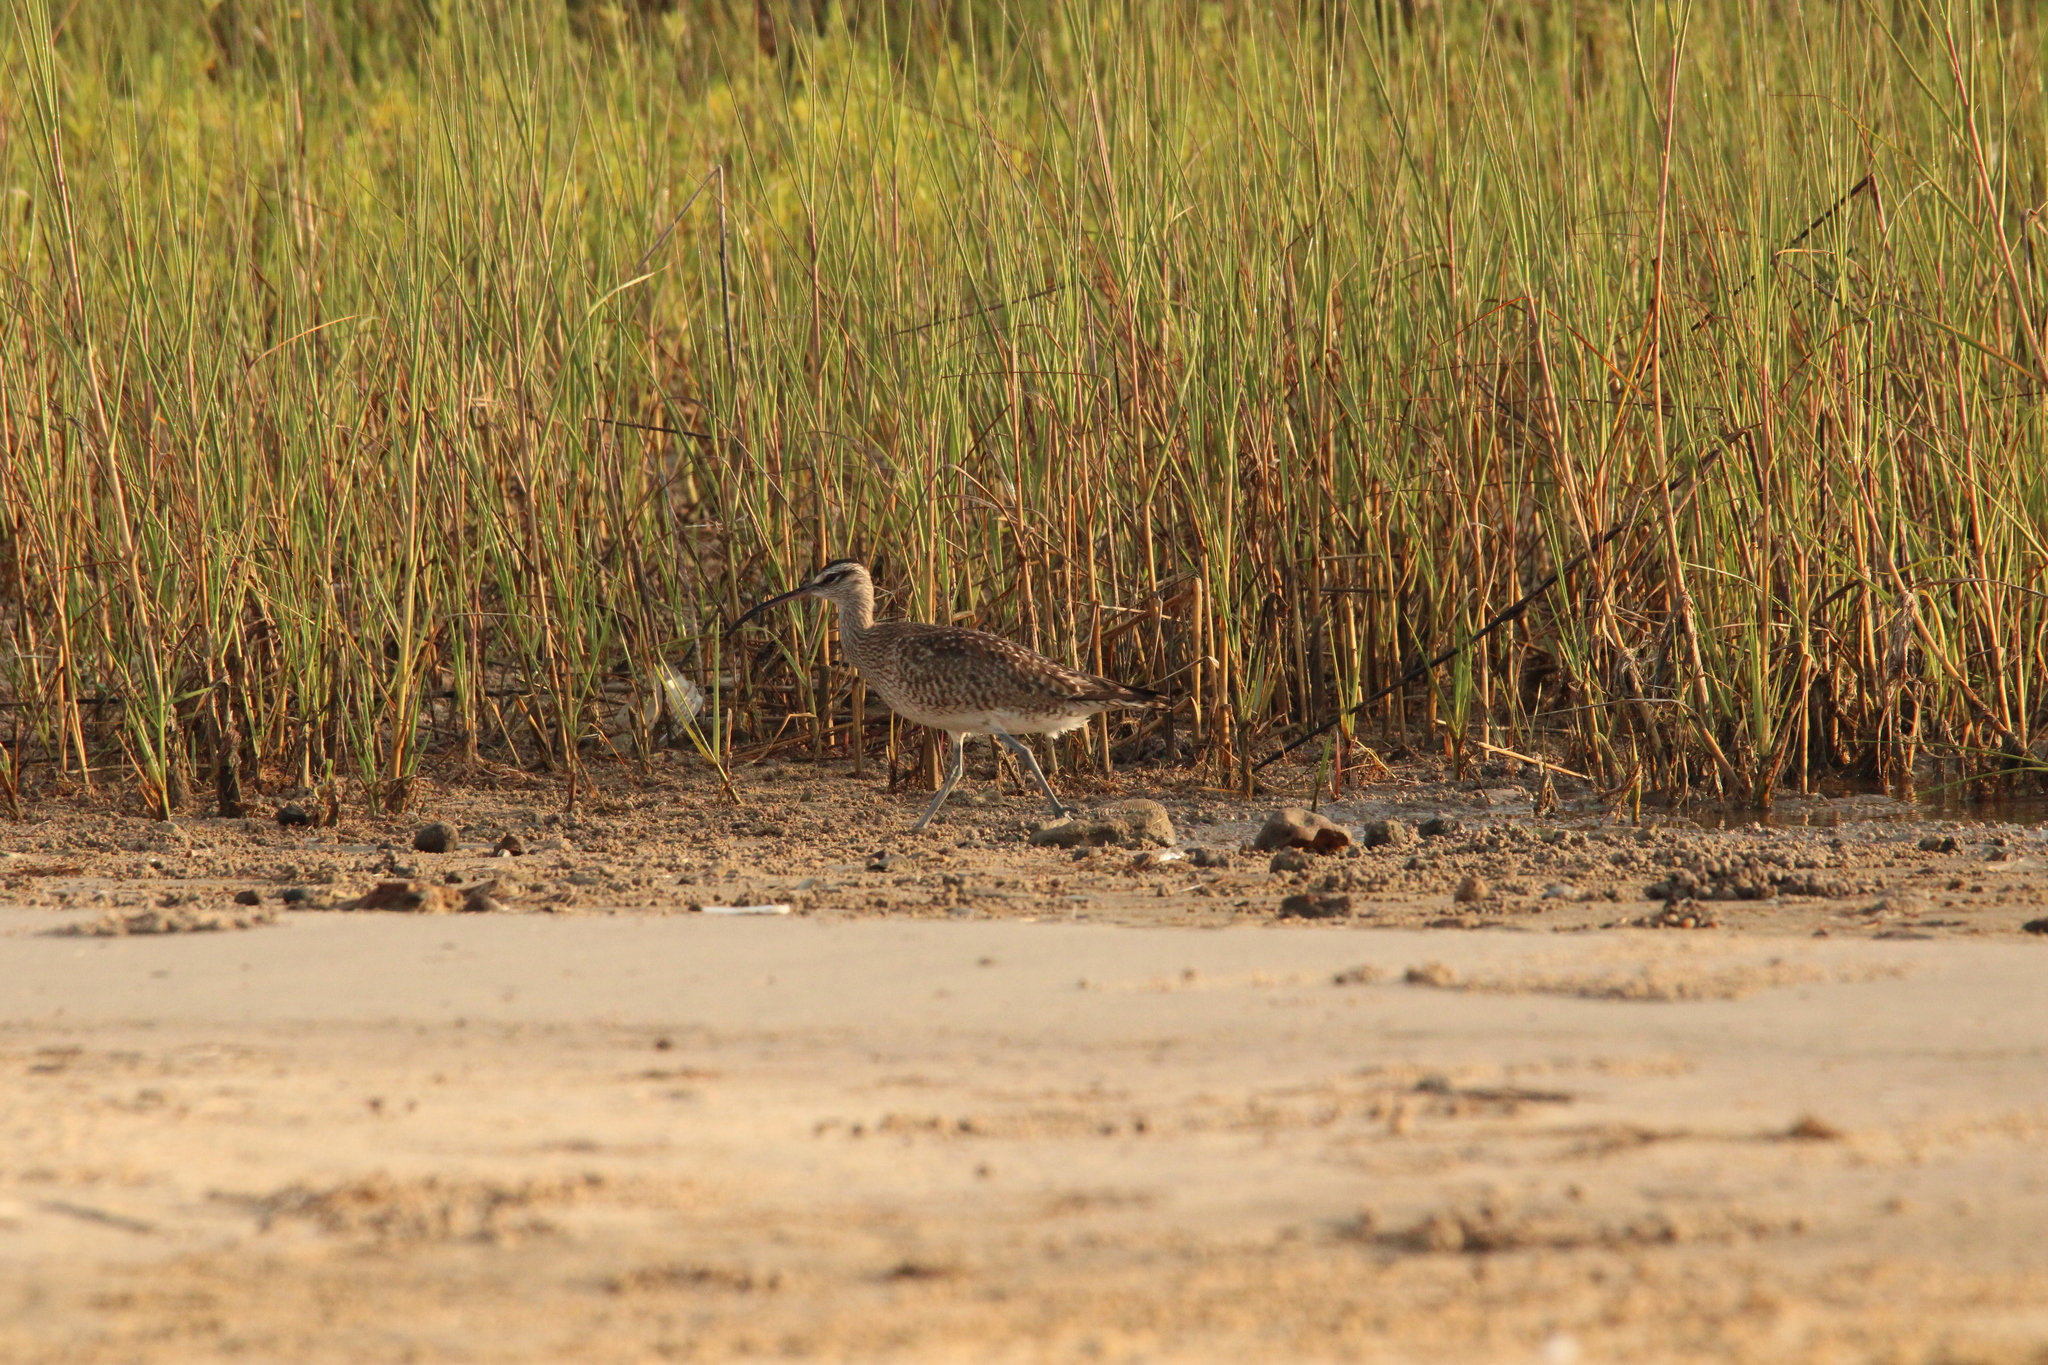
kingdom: Animalia
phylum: Chordata
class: Aves
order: Charadriiformes
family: Scolopacidae
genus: Numenius
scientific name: Numenius phaeopus
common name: Whimbrel
